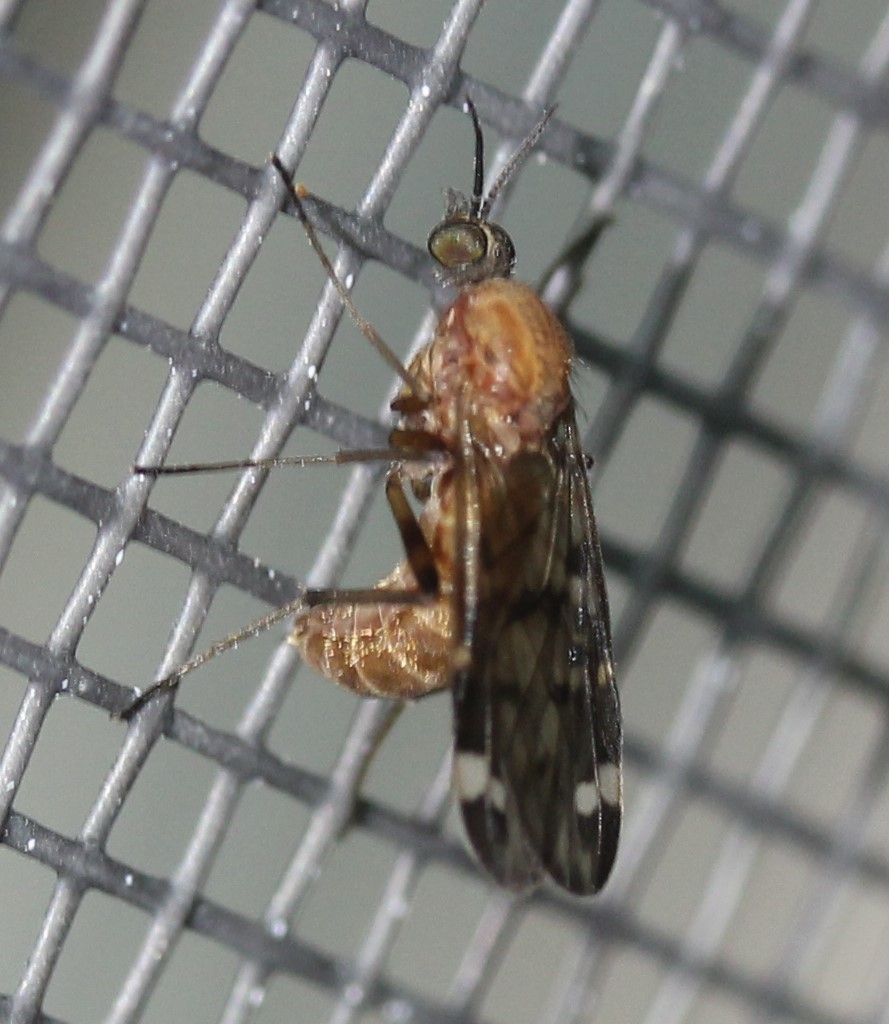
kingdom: Animalia
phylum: Arthropoda
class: Insecta
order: Diptera
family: Anisopodidae
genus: Sylvicola
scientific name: Sylvicola alternata
